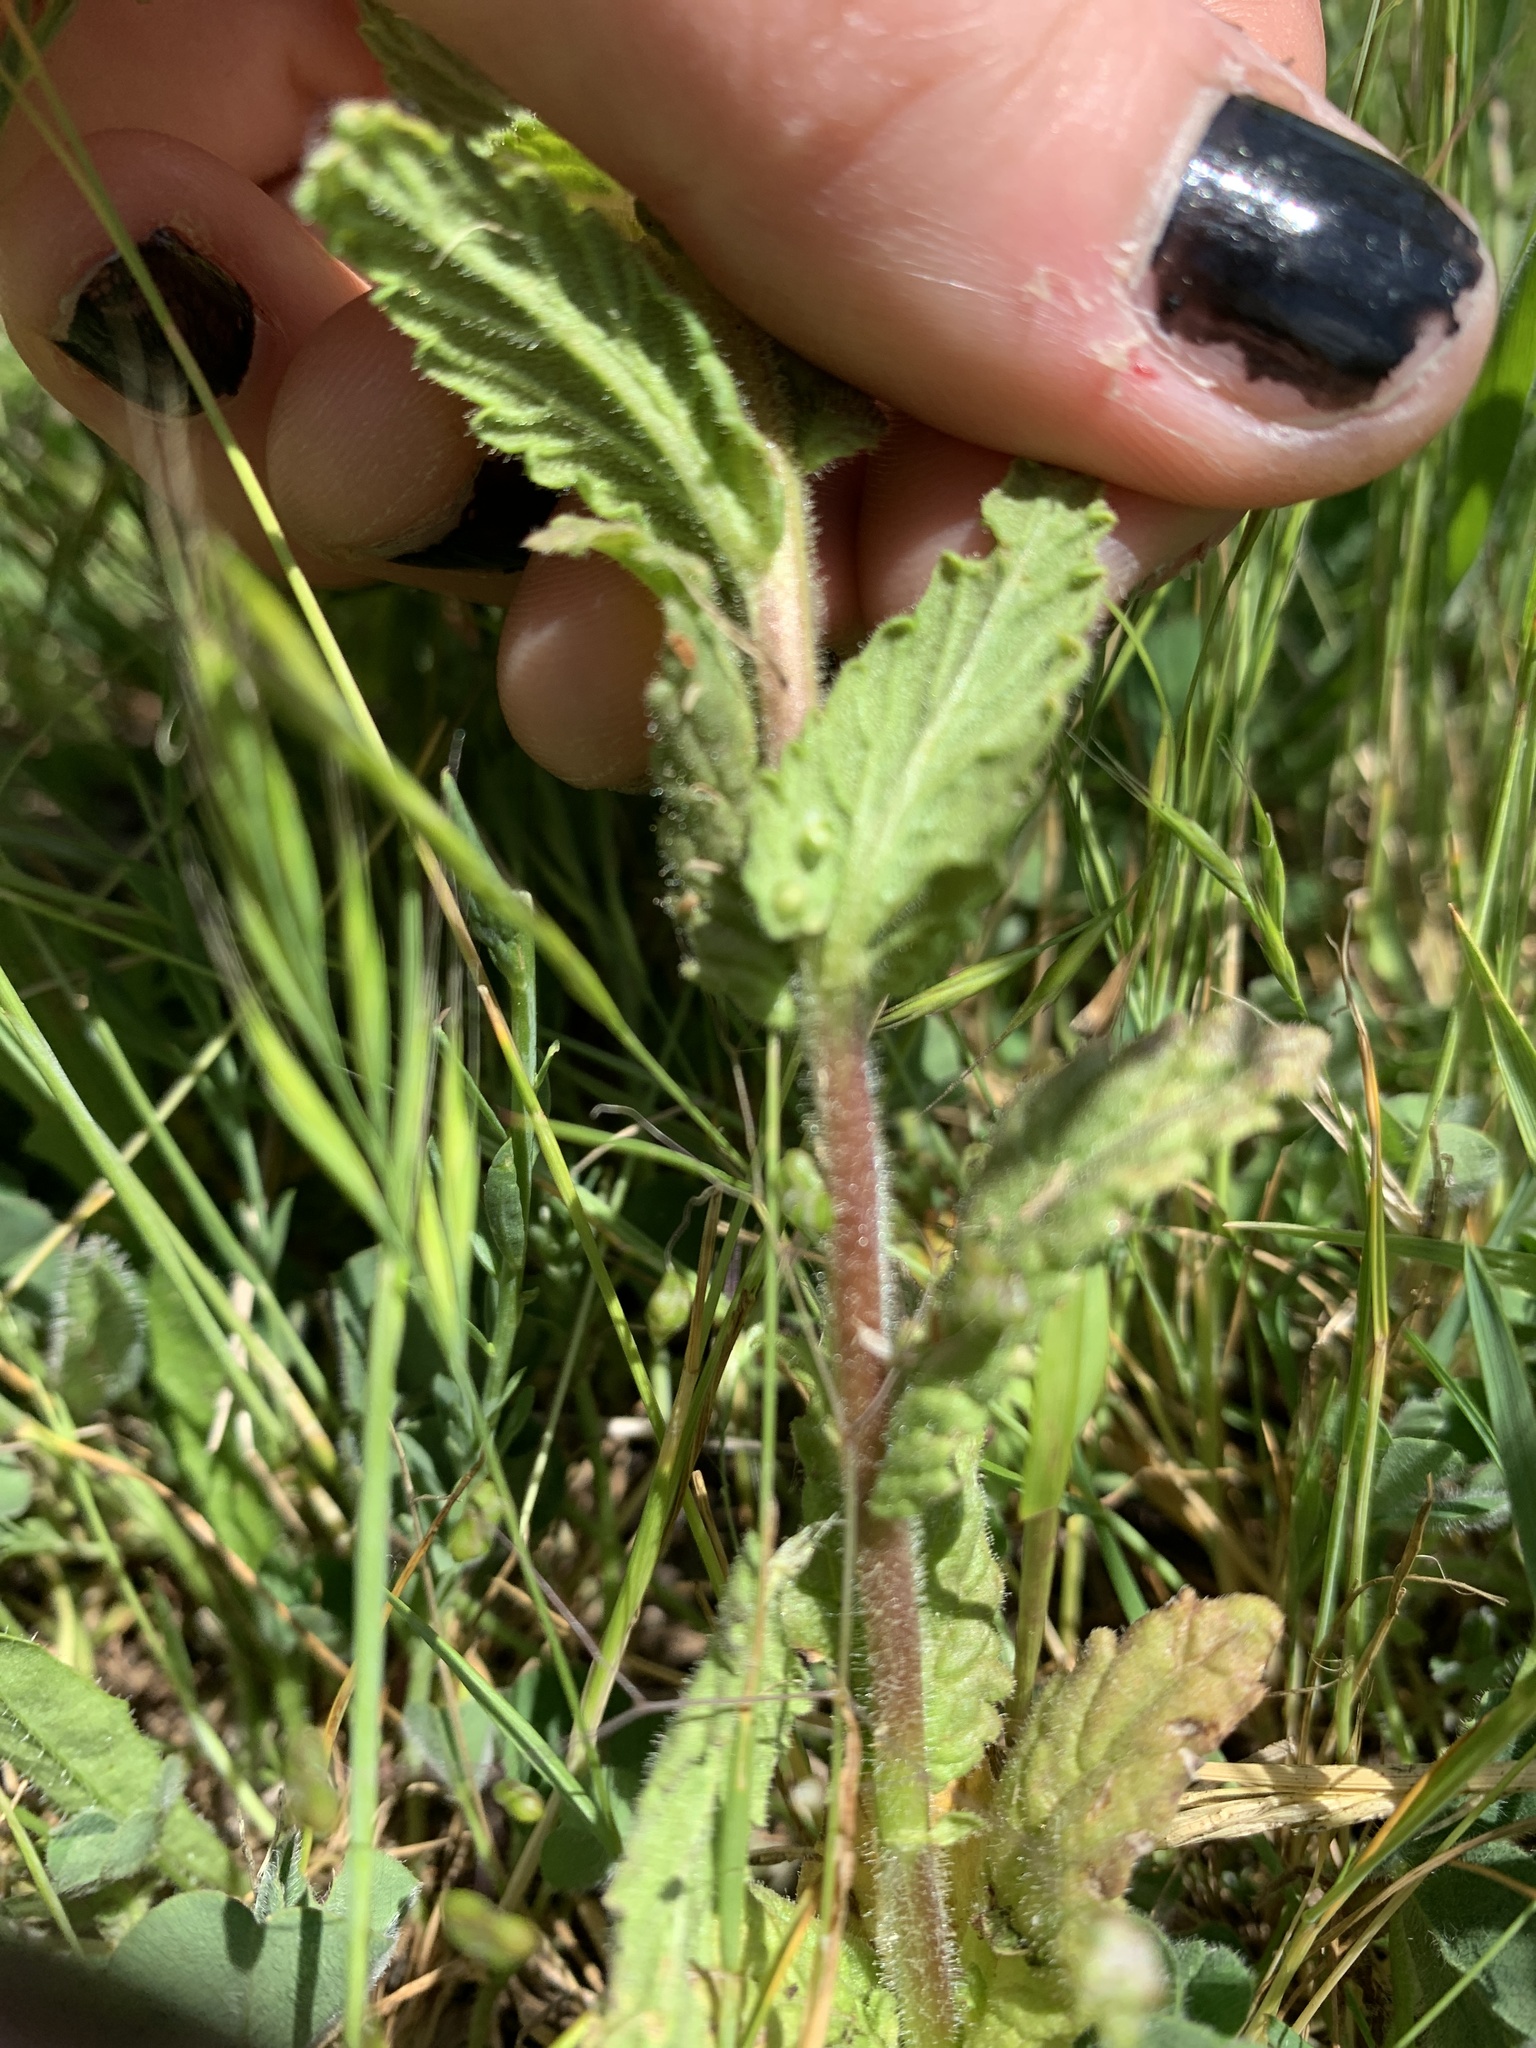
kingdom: Plantae
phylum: Tracheophyta
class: Magnoliopsida
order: Lamiales
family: Orobanchaceae
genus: Bellardia
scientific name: Bellardia viscosa
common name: Sticky parentucellia
